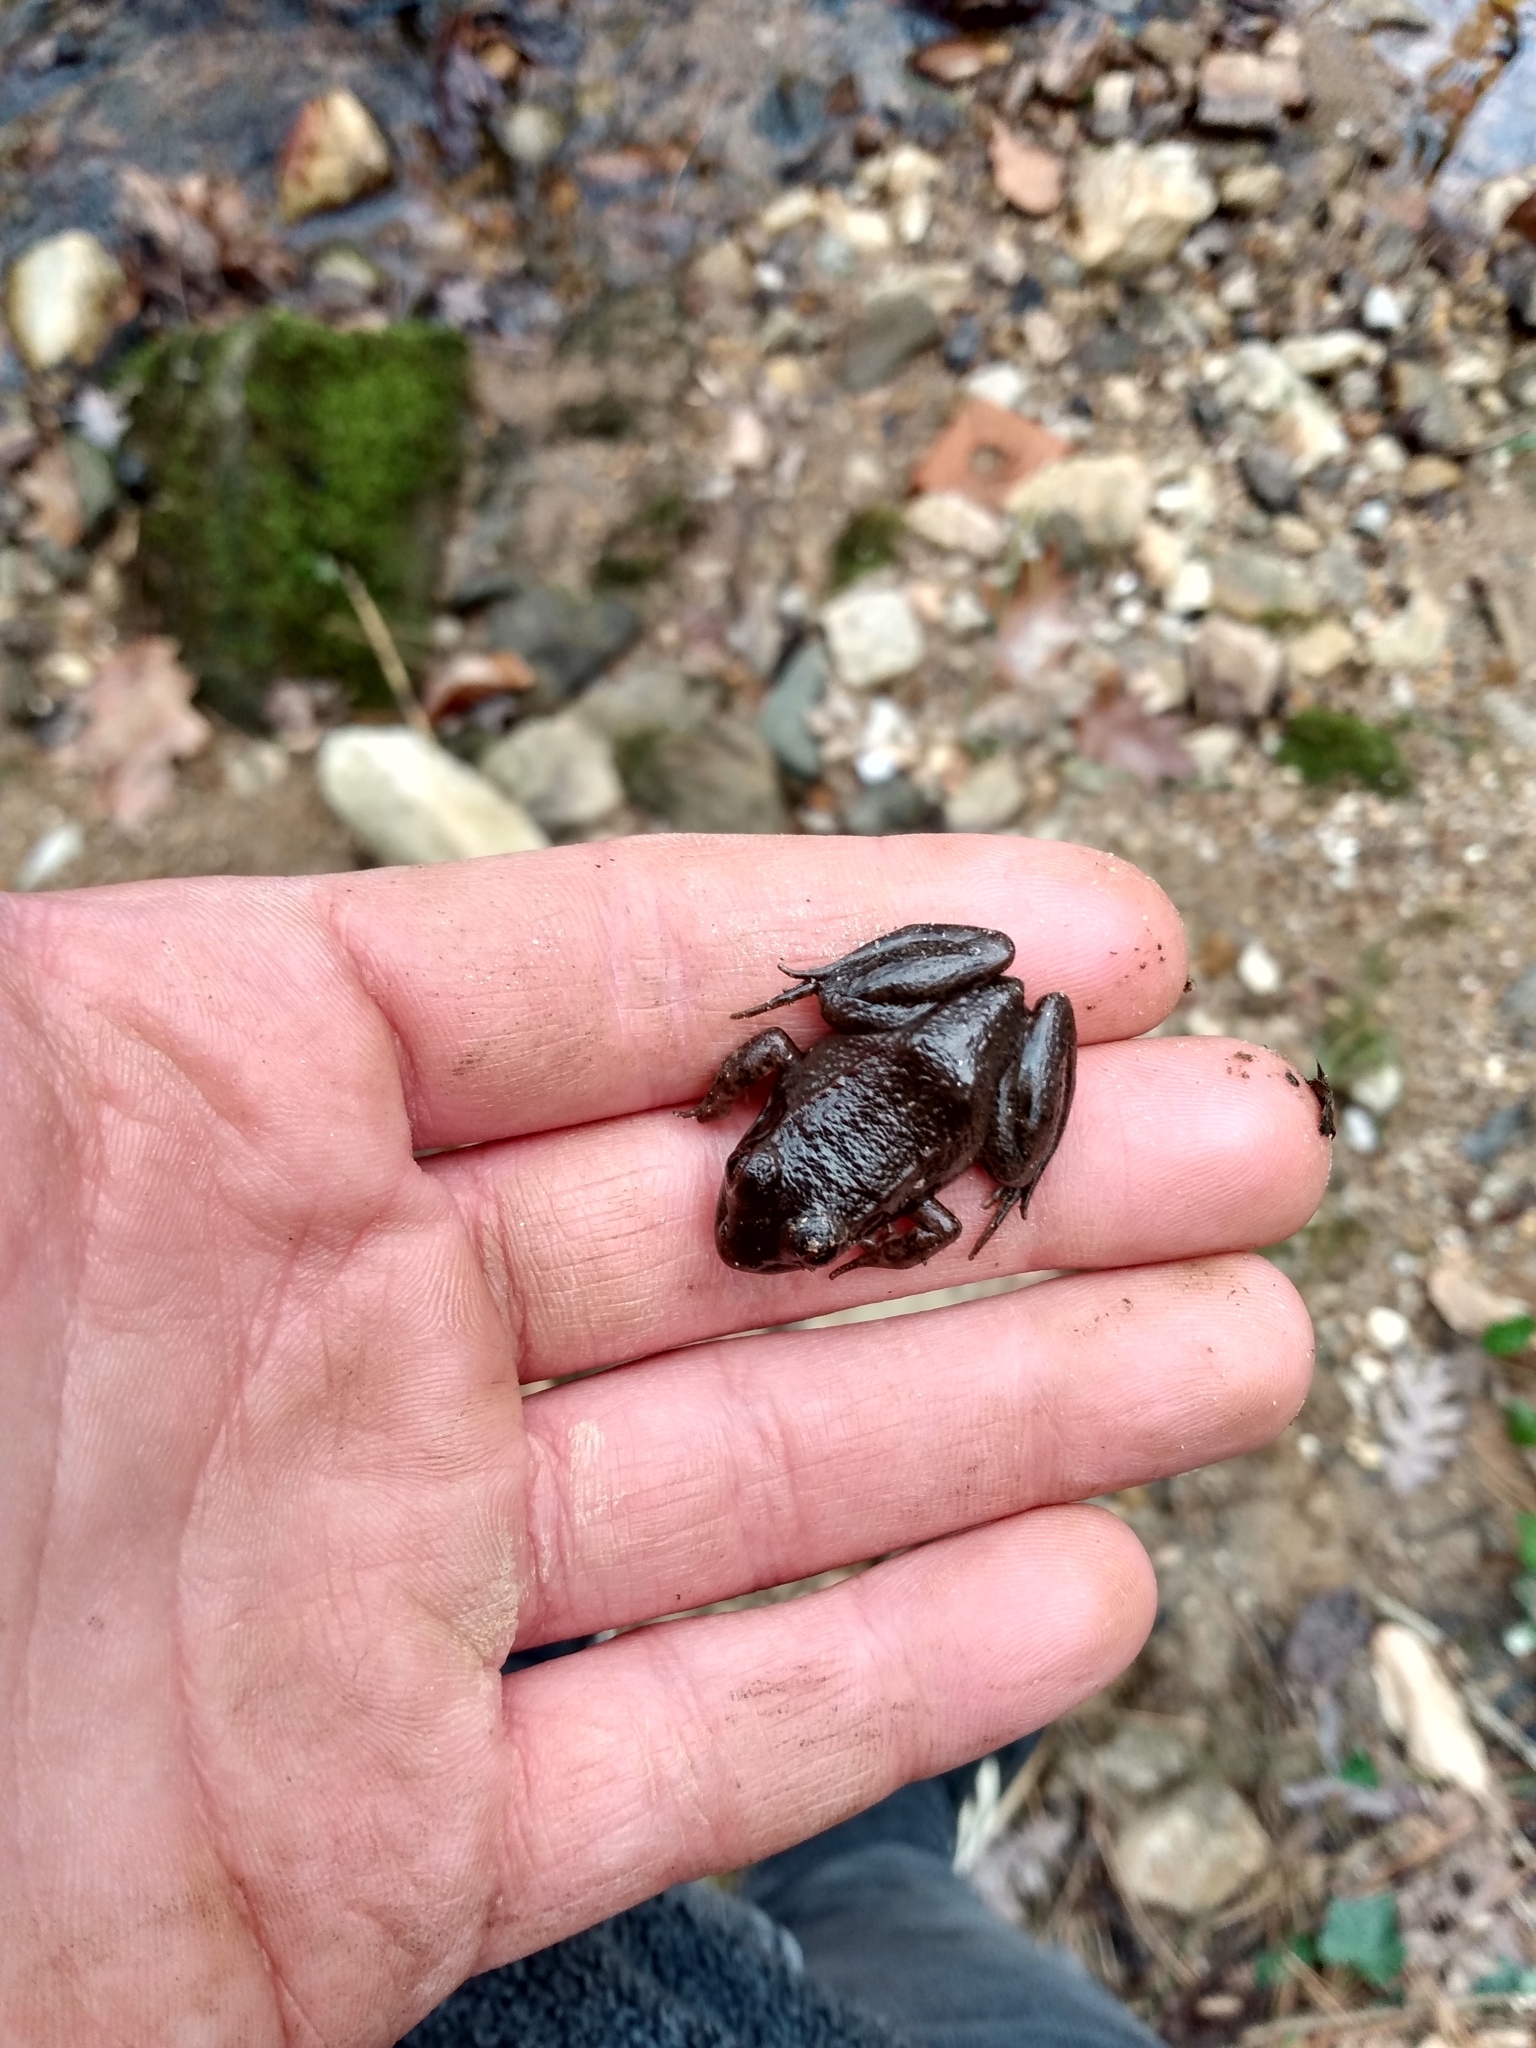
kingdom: Animalia
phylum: Chordata
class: Amphibia
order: Anura
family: Ranidae
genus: Lithobates
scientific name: Lithobates clamitans
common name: Green frog
